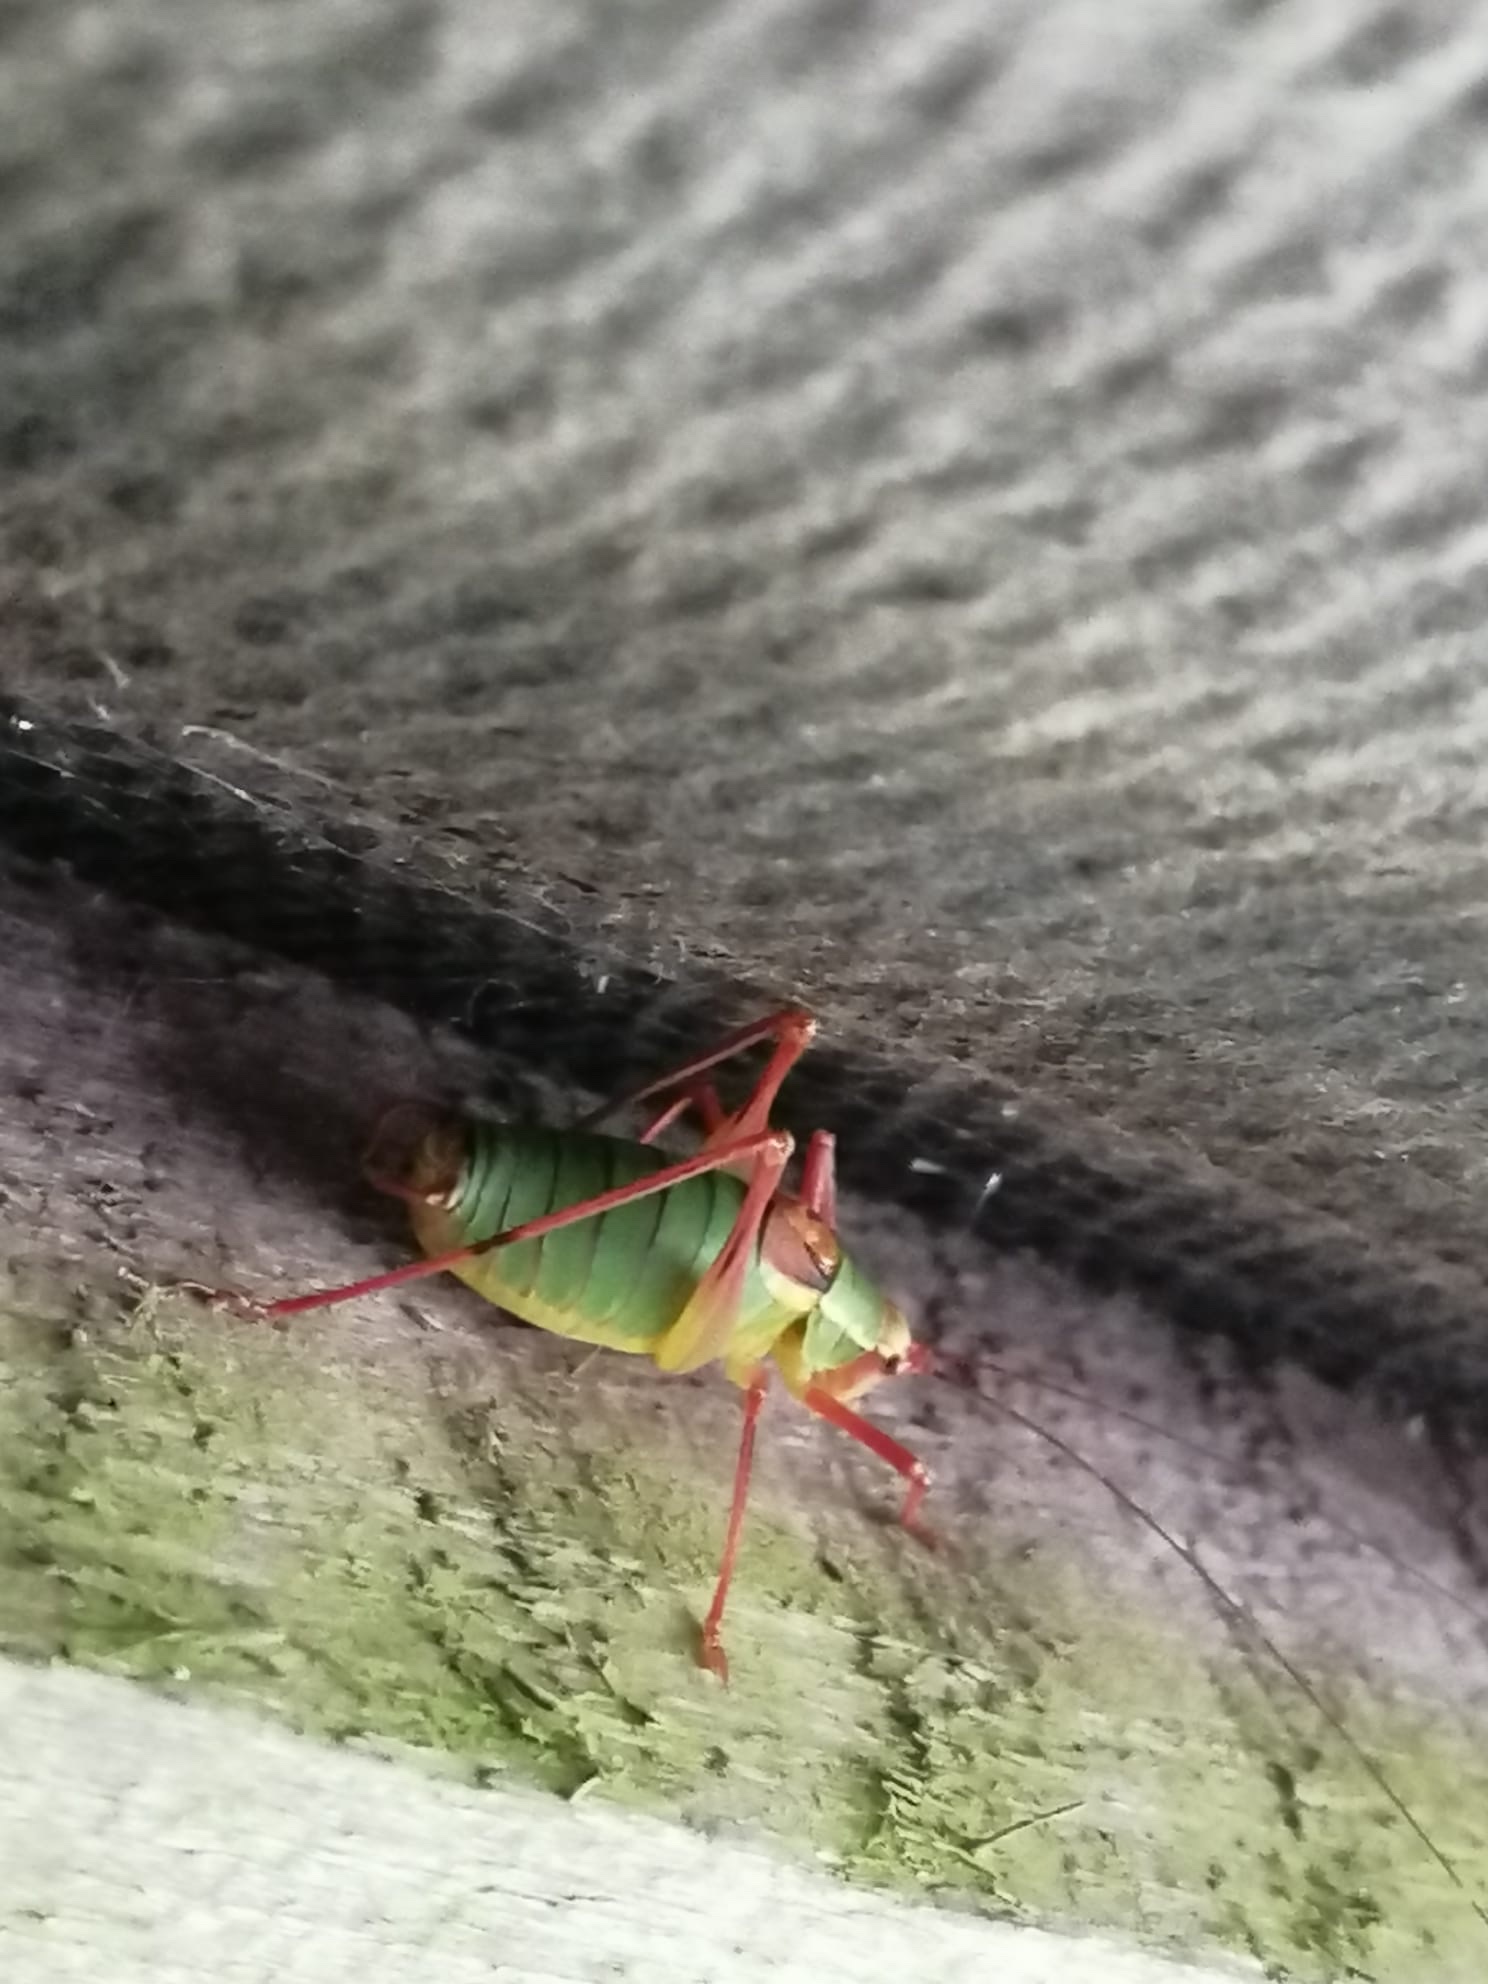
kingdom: Animalia
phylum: Arthropoda
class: Insecta
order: Orthoptera
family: Tettigoniidae
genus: Barbitistes
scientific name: Barbitistes serricauda
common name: Saw-tailed bush-cricket
